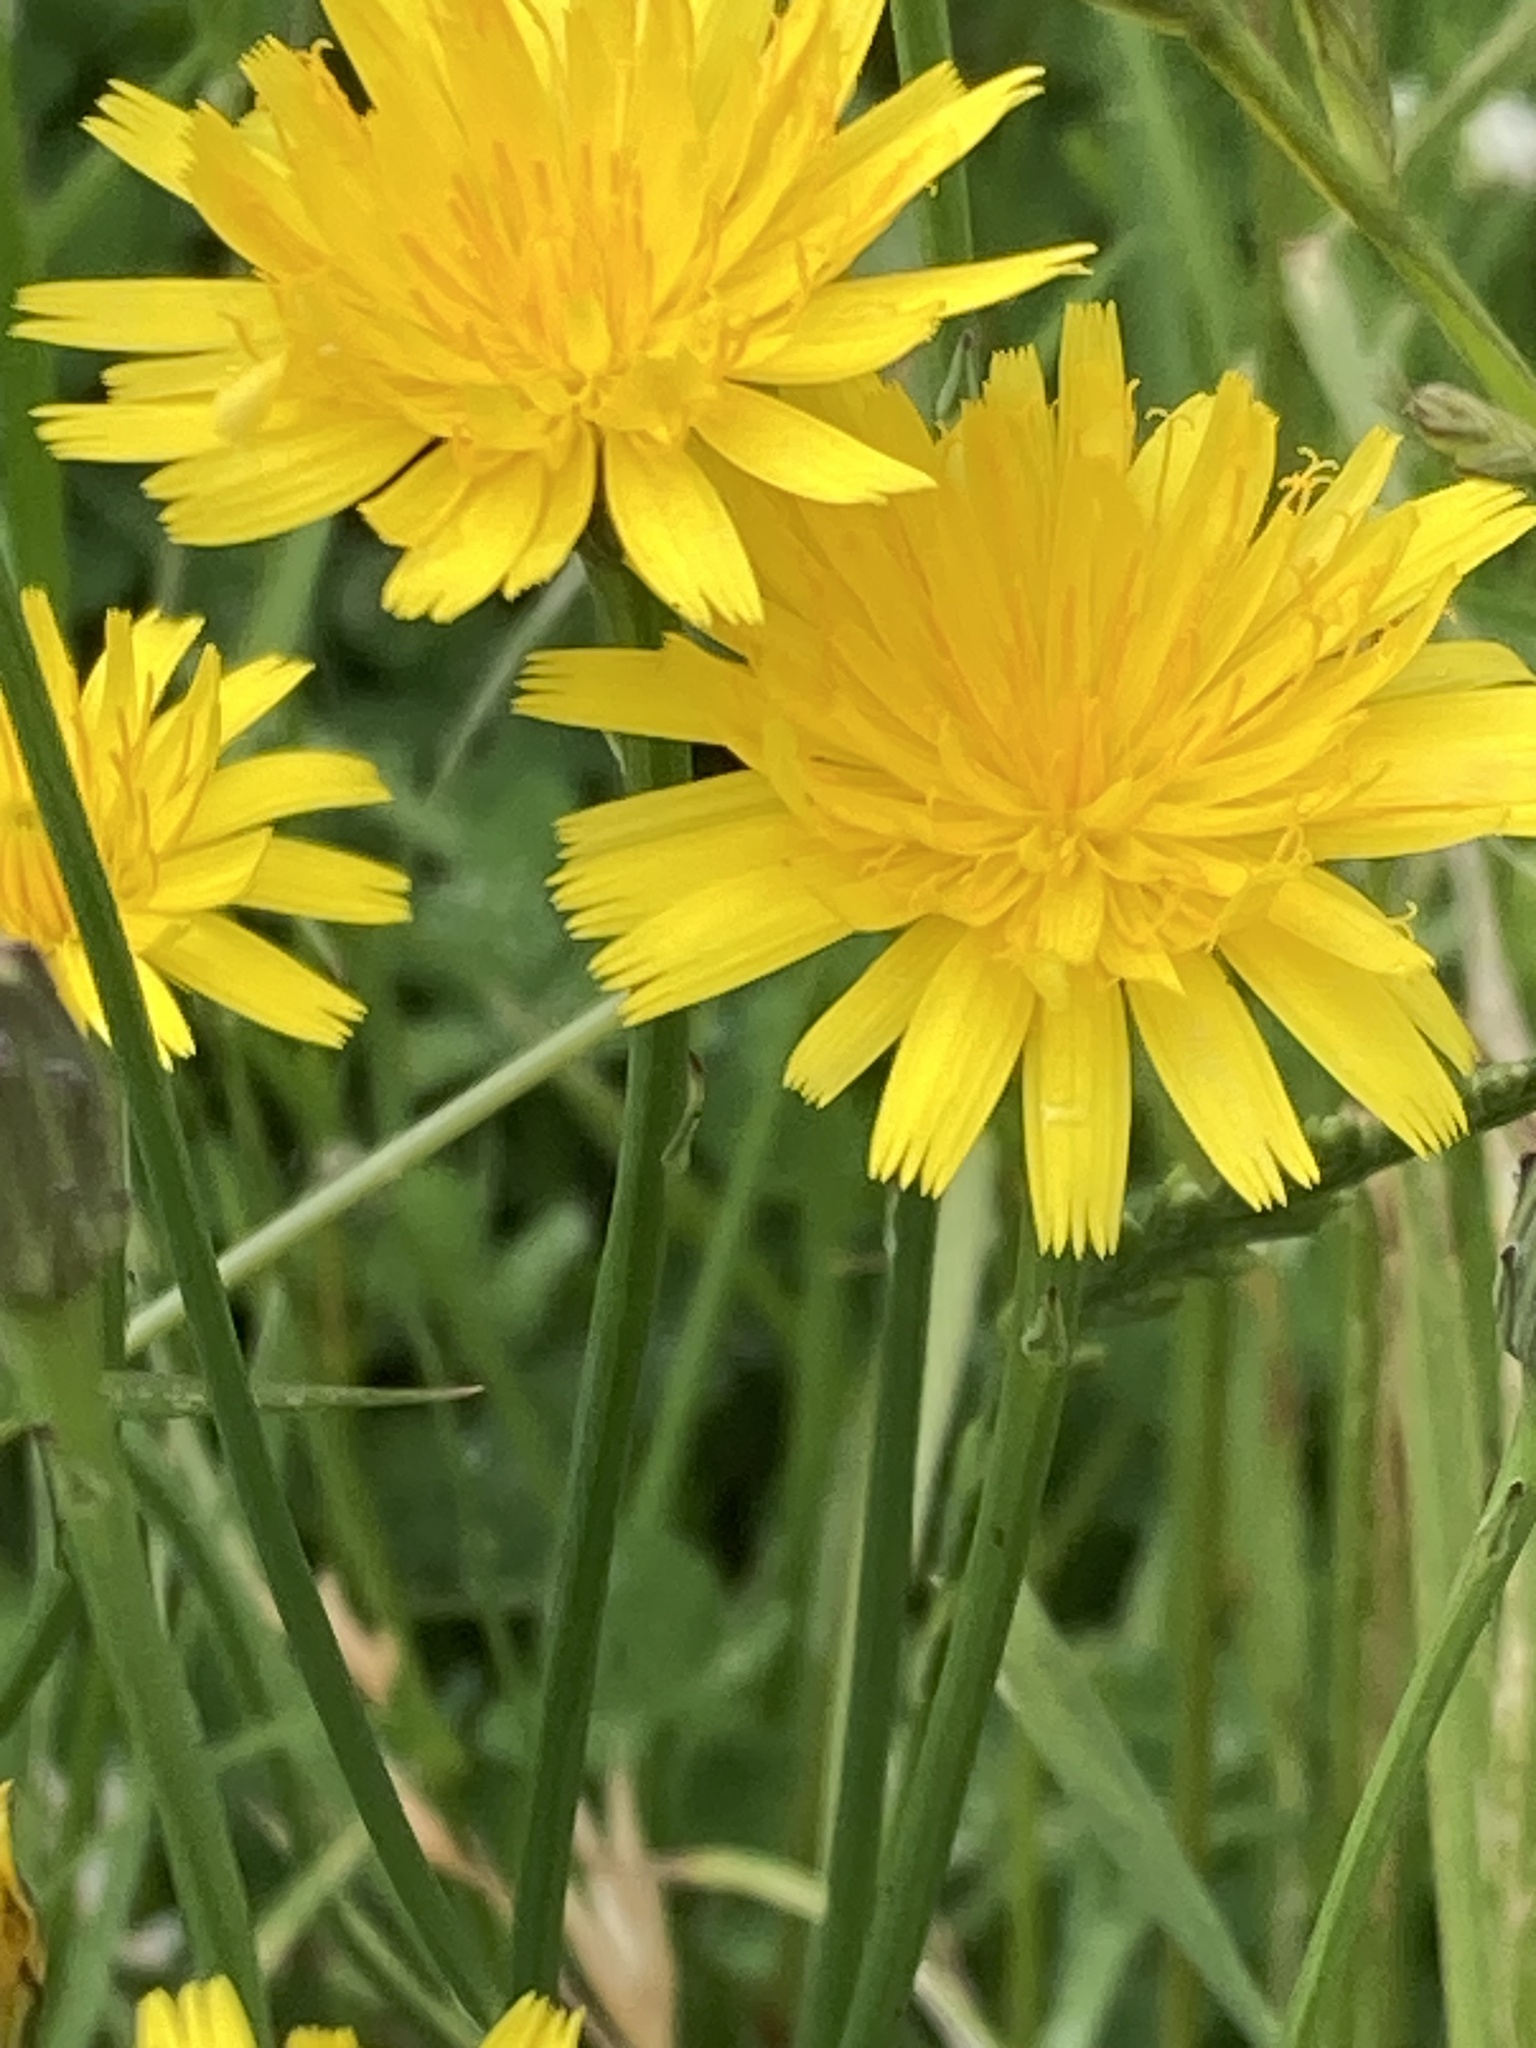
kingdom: Plantae
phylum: Tracheophyta
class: Magnoliopsida
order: Asterales
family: Asteraceae
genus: Hypochaeris
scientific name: Hypochaeris radicata
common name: Flatweed
